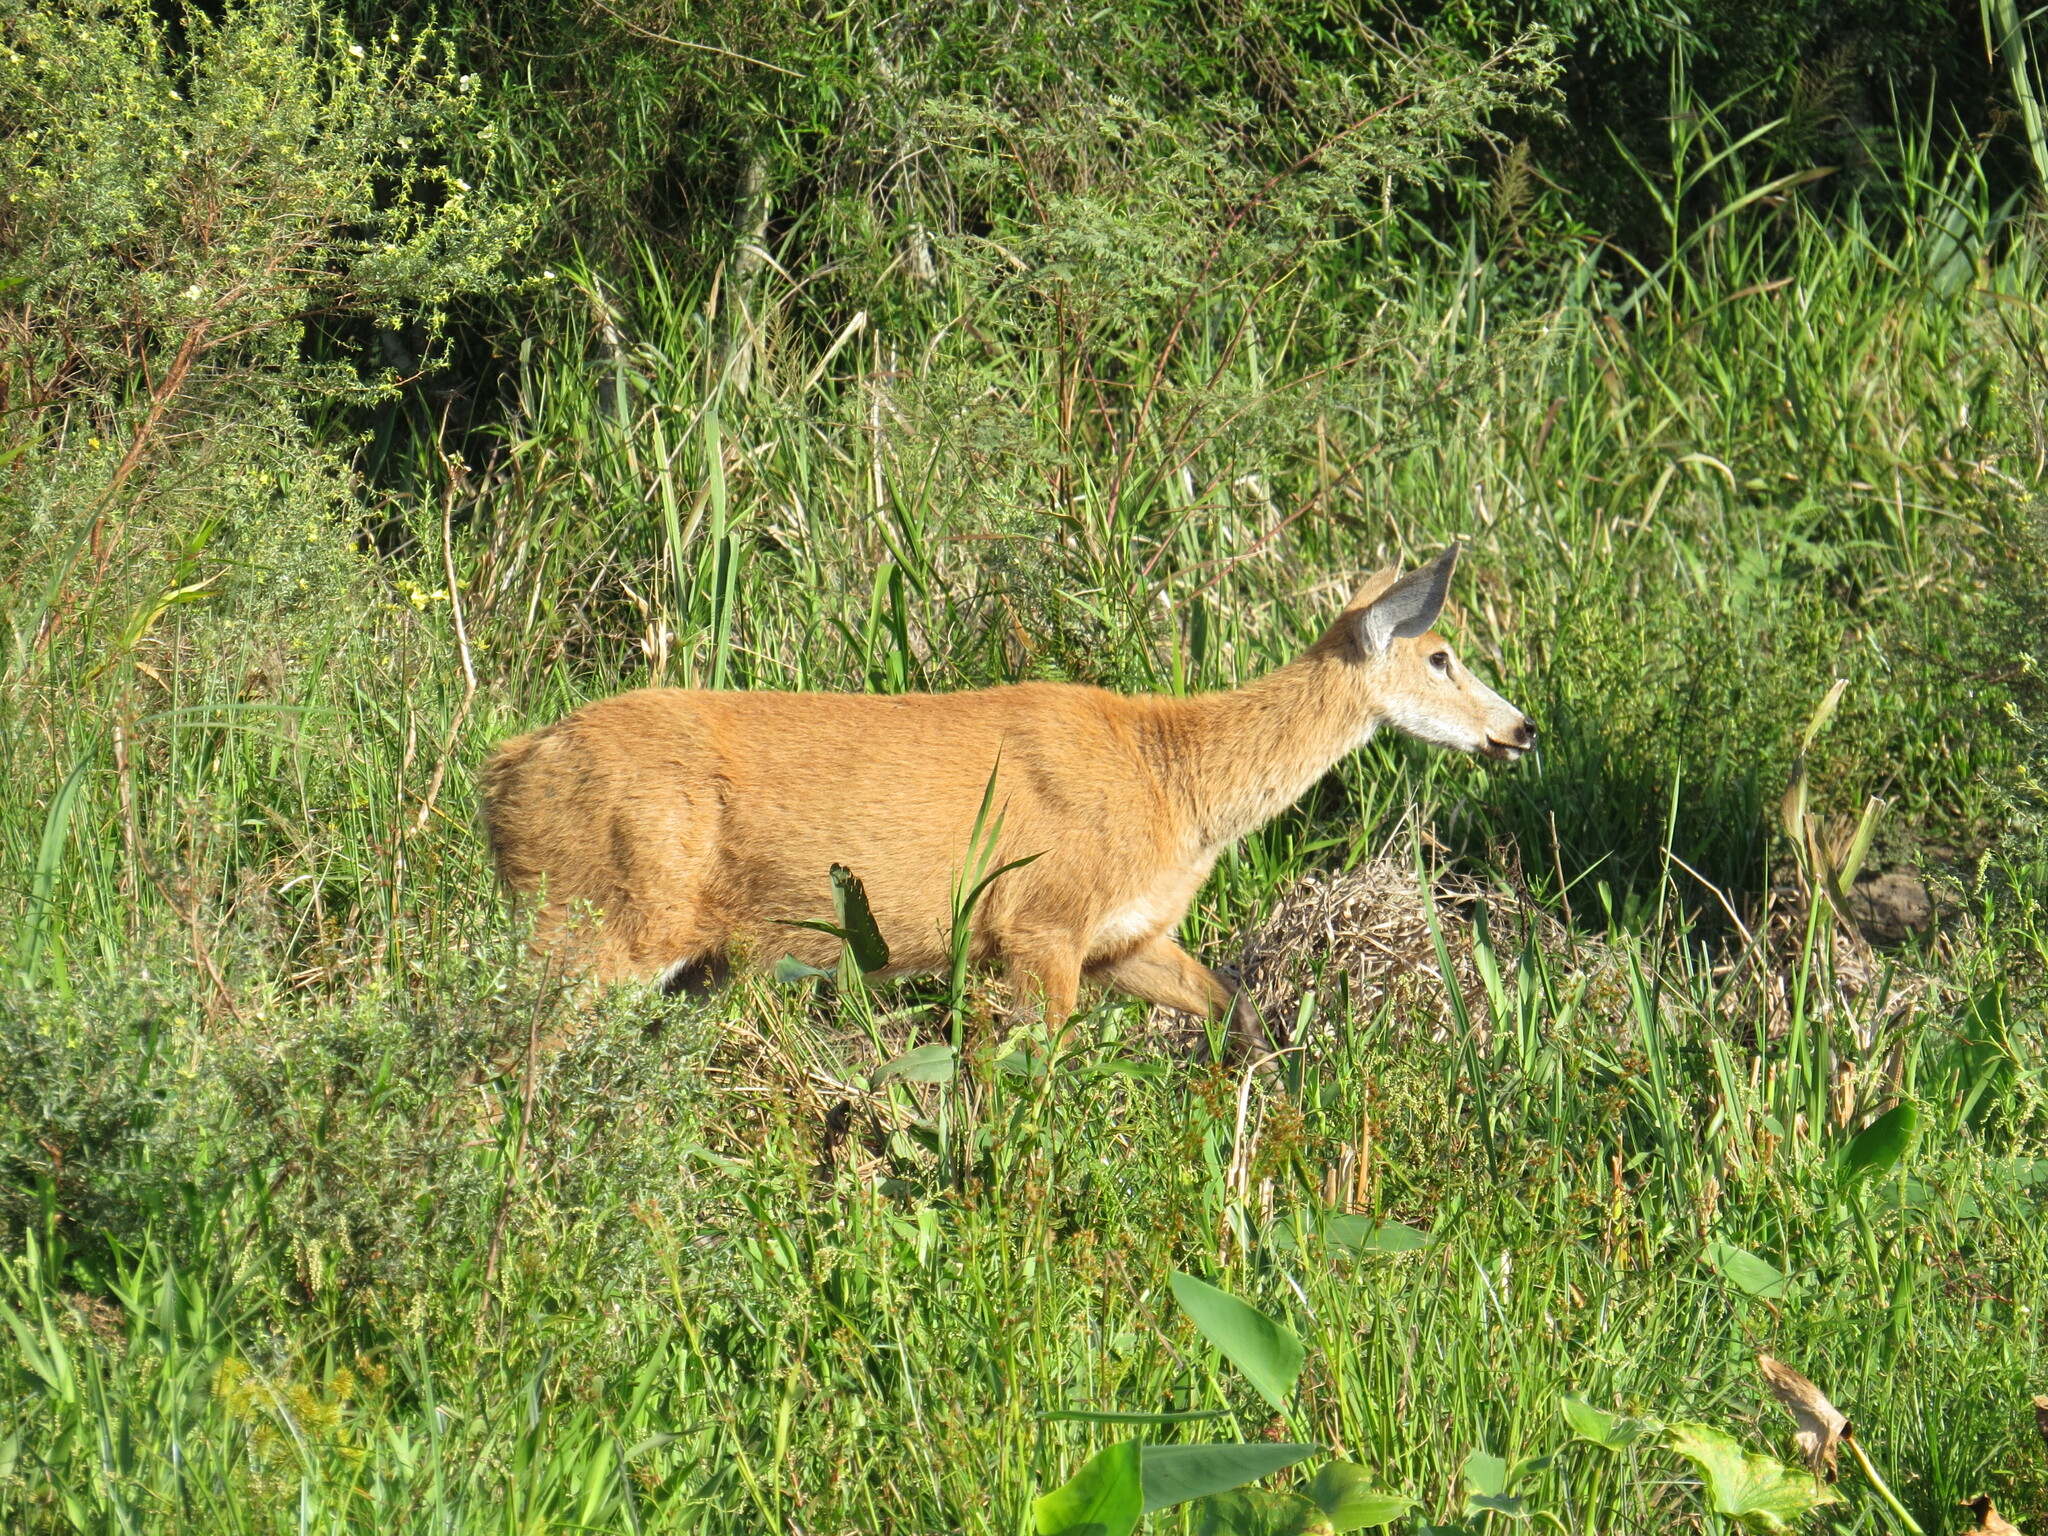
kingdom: Animalia
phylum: Chordata
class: Mammalia
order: Artiodactyla
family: Cervidae
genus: Blastocerus
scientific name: Blastocerus dichotomus
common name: Marsh deer
